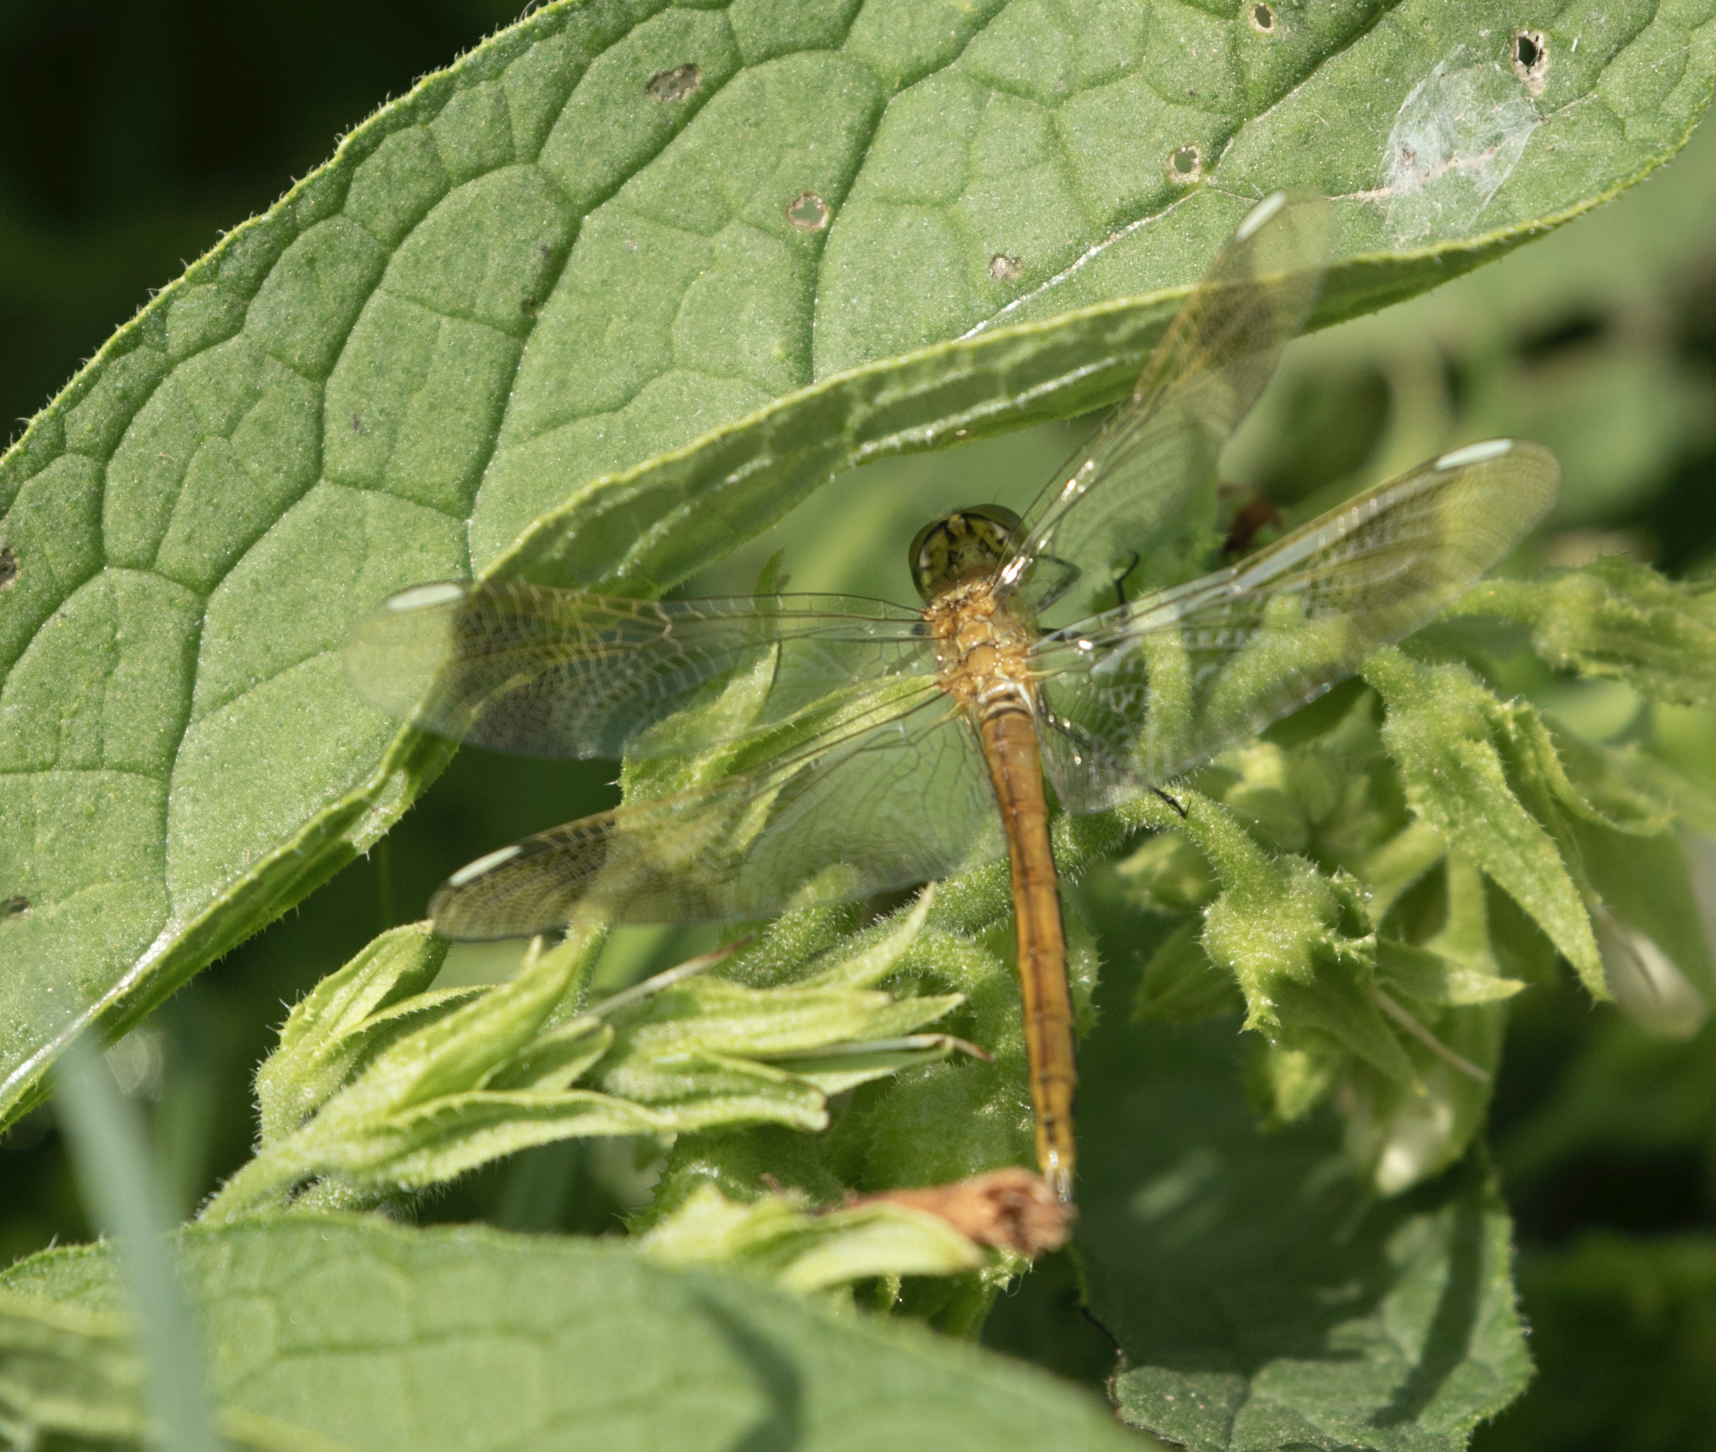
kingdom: Animalia
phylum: Arthropoda
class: Insecta
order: Odonata
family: Libellulidae
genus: Sympetrum
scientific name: Sympetrum pedemontanum
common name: Banded darter
